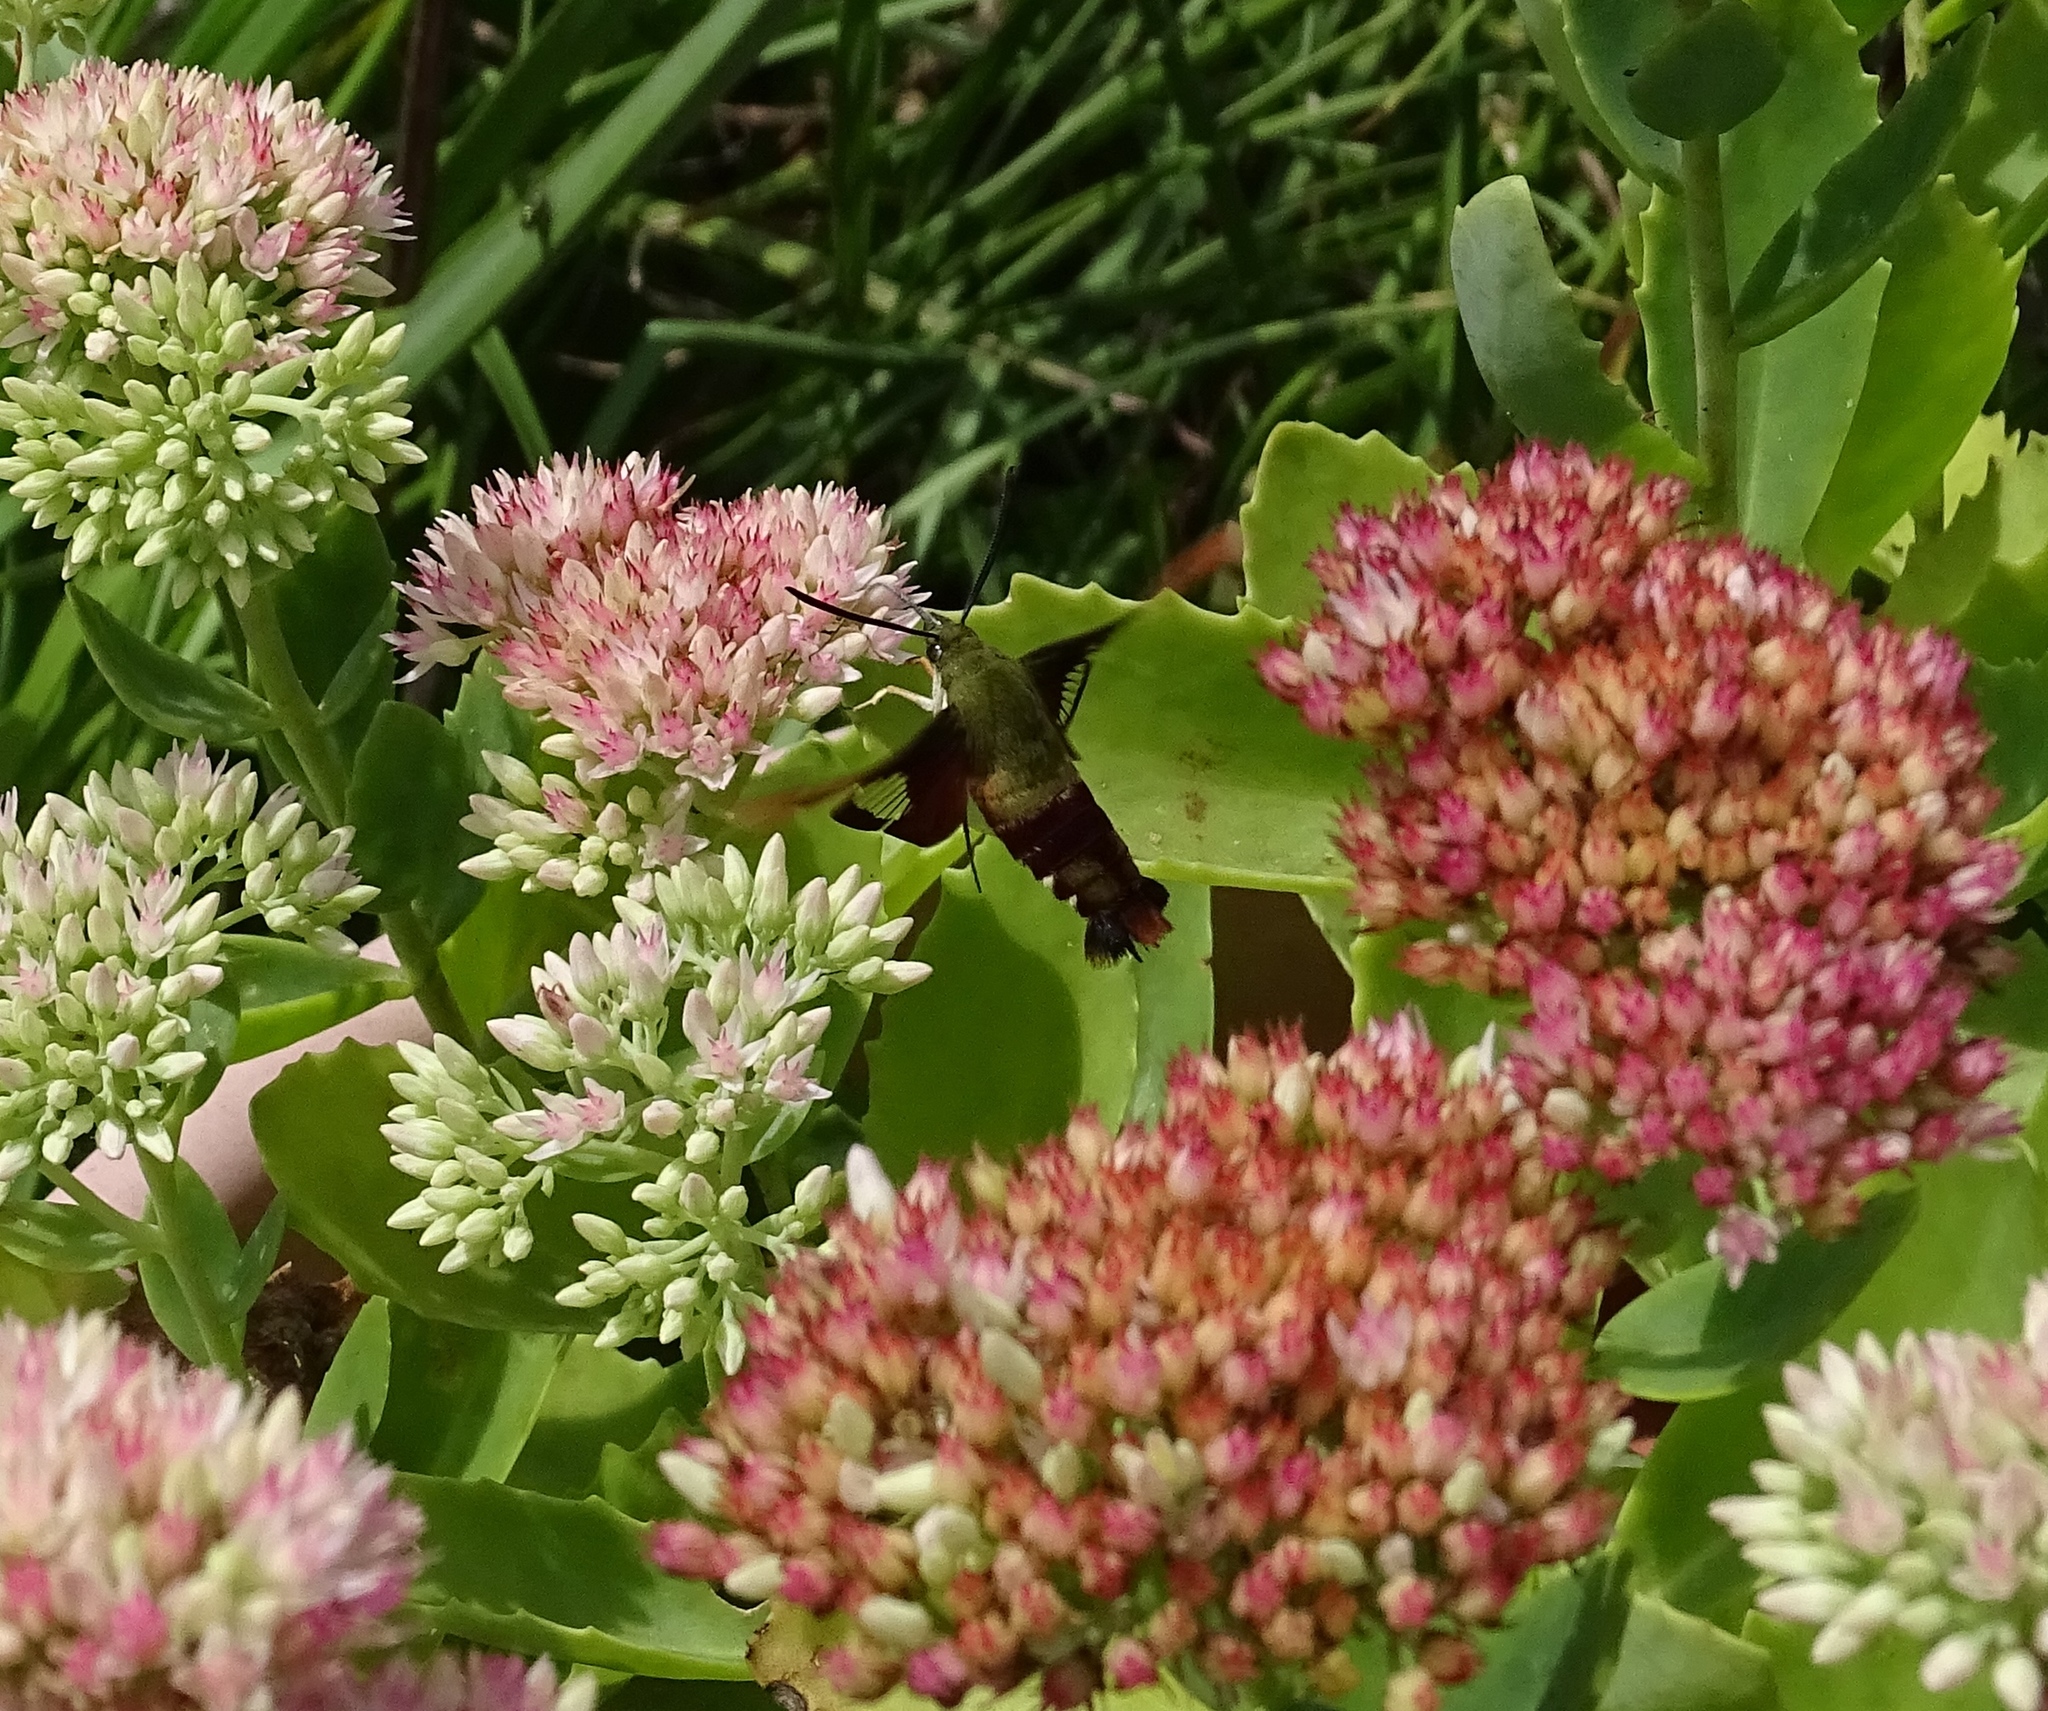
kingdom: Animalia
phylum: Arthropoda
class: Insecta
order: Lepidoptera
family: Sphingidae
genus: Hemaris
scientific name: Hemaris thysbe
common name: Common clear-wing
